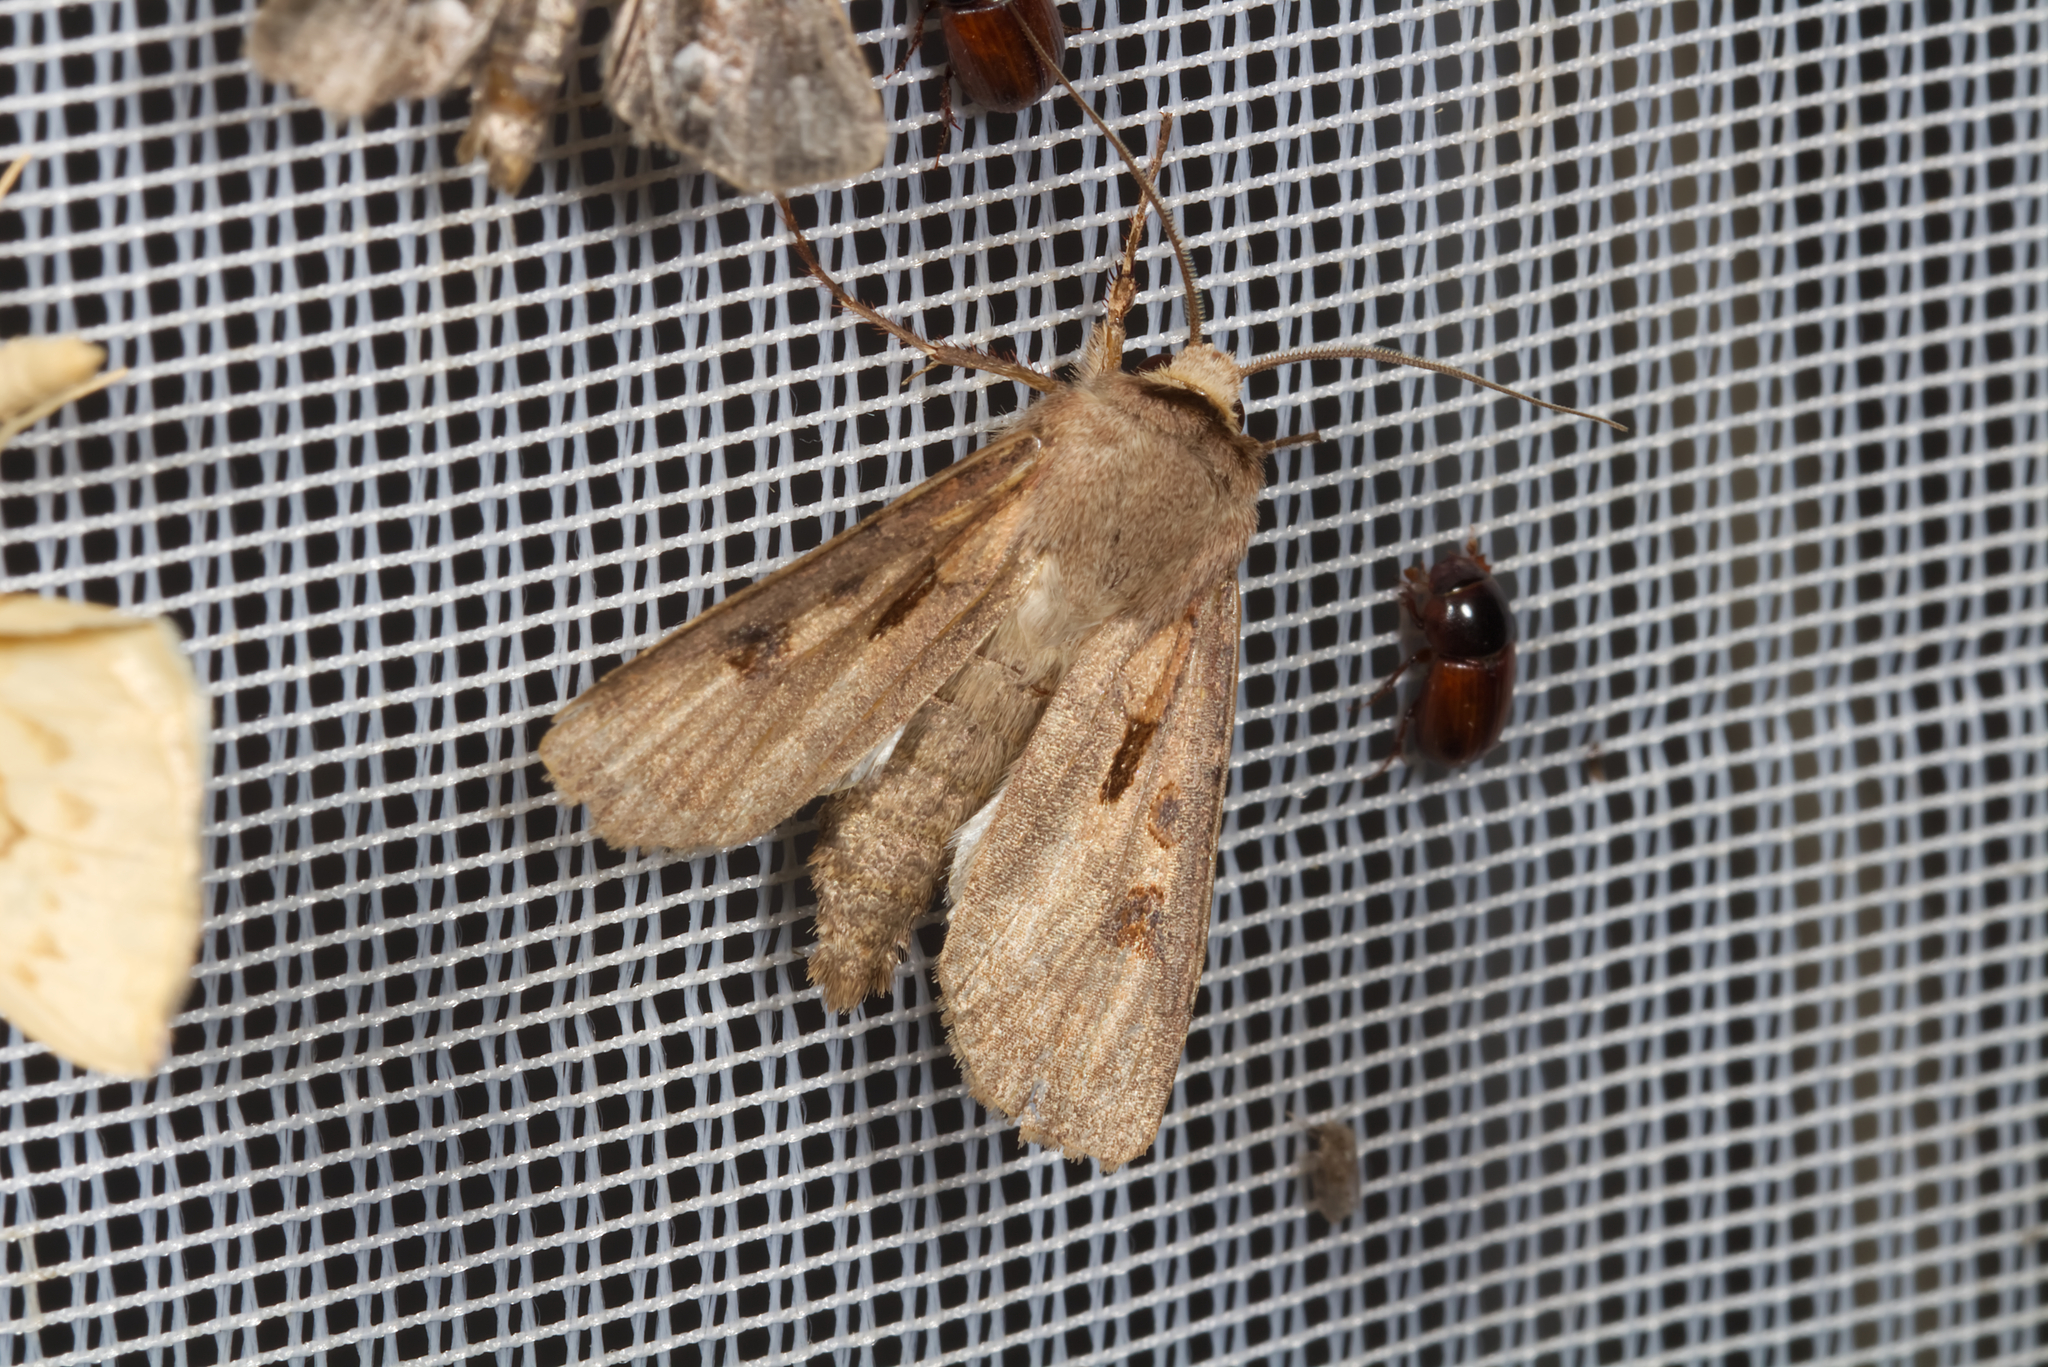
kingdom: Animalia
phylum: Arthropoda
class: Insecta
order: Lepidoptera
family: Noctuidae
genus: Agrotis
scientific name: Agrotis exclamationis
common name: Heart and dart
